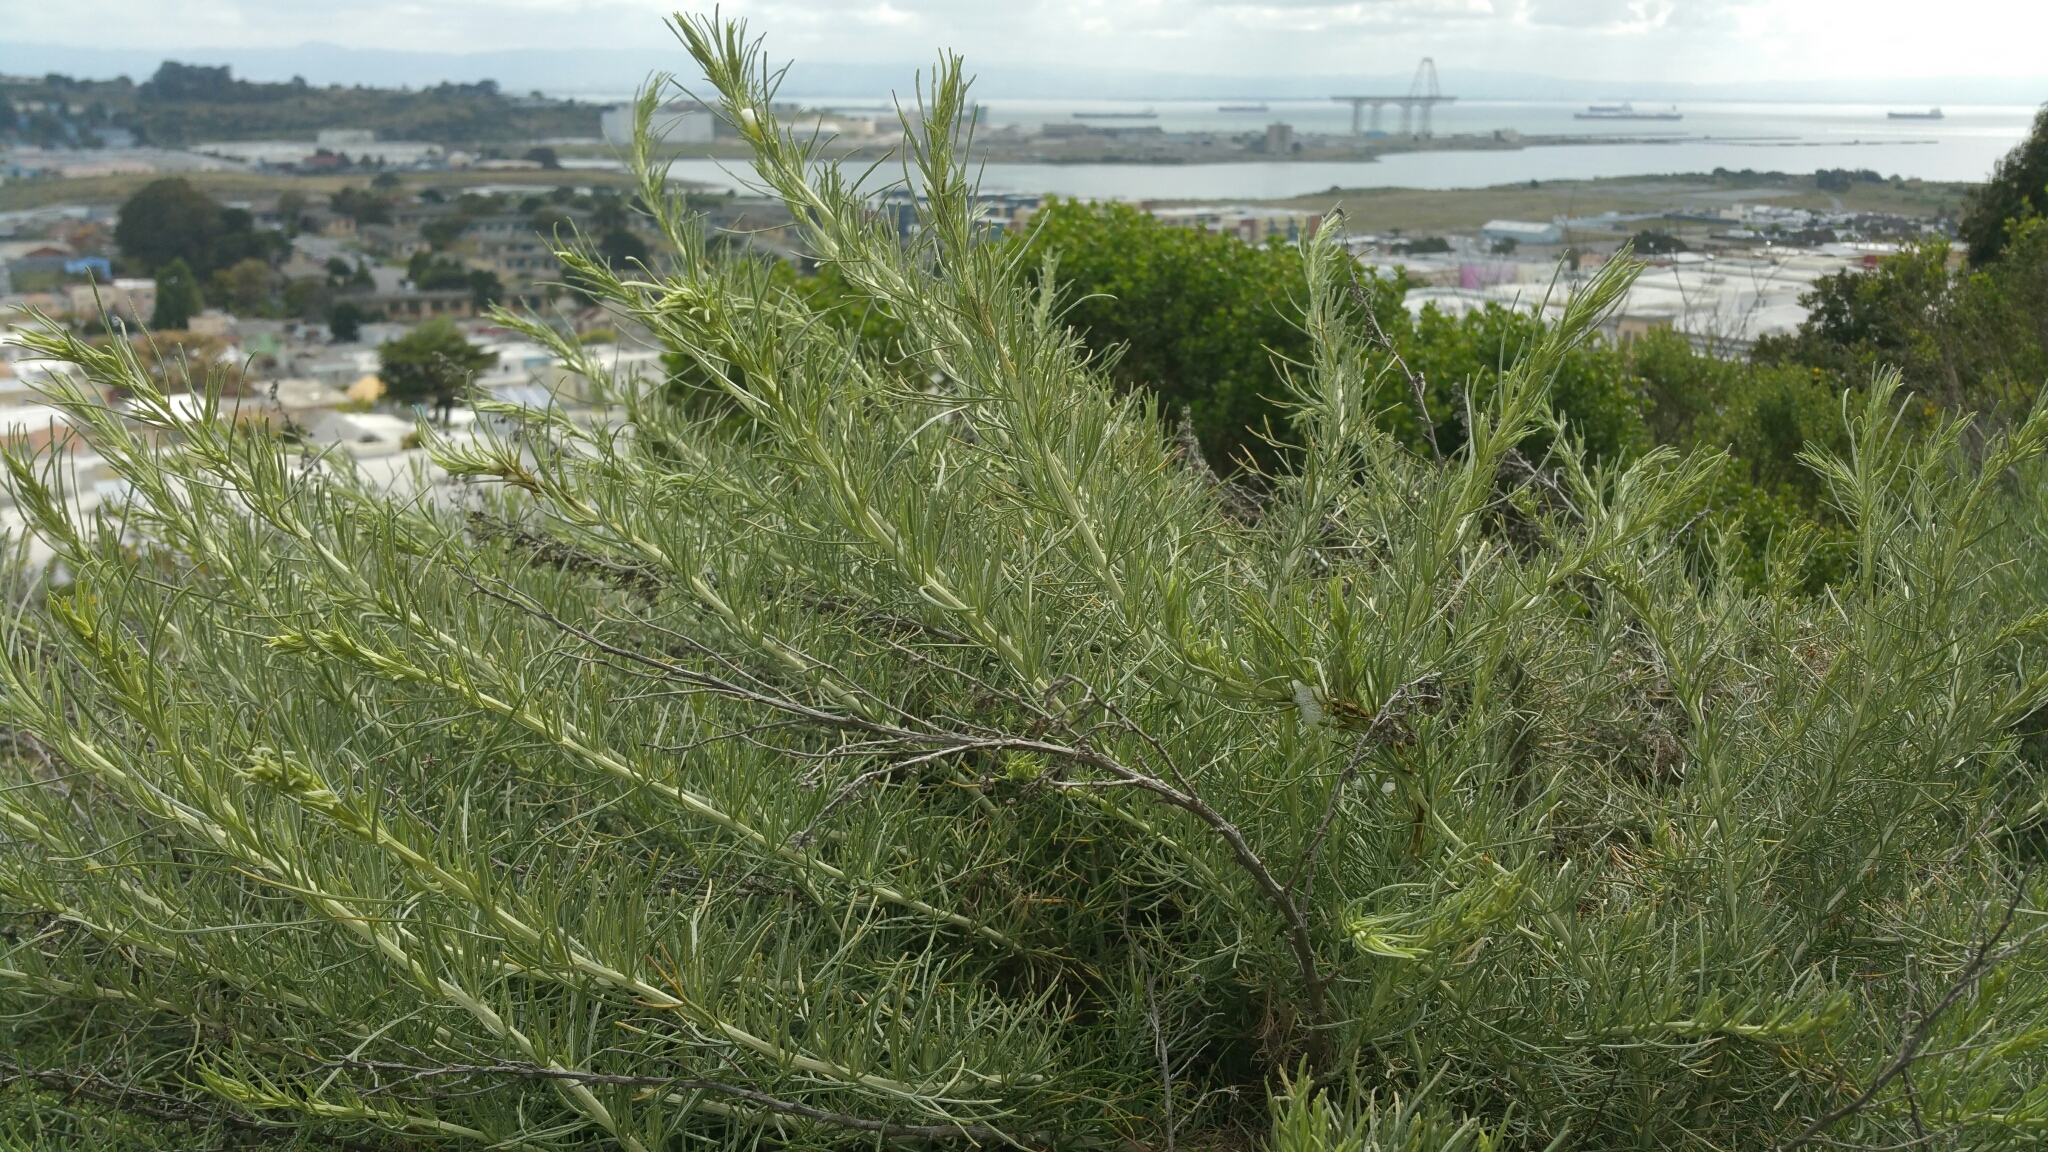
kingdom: Plantae
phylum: Tracheophyta
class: Magnoliopsida
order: Asterales
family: Asteraceae
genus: Artemisia
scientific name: Artemisia californica
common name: California sagebrush
